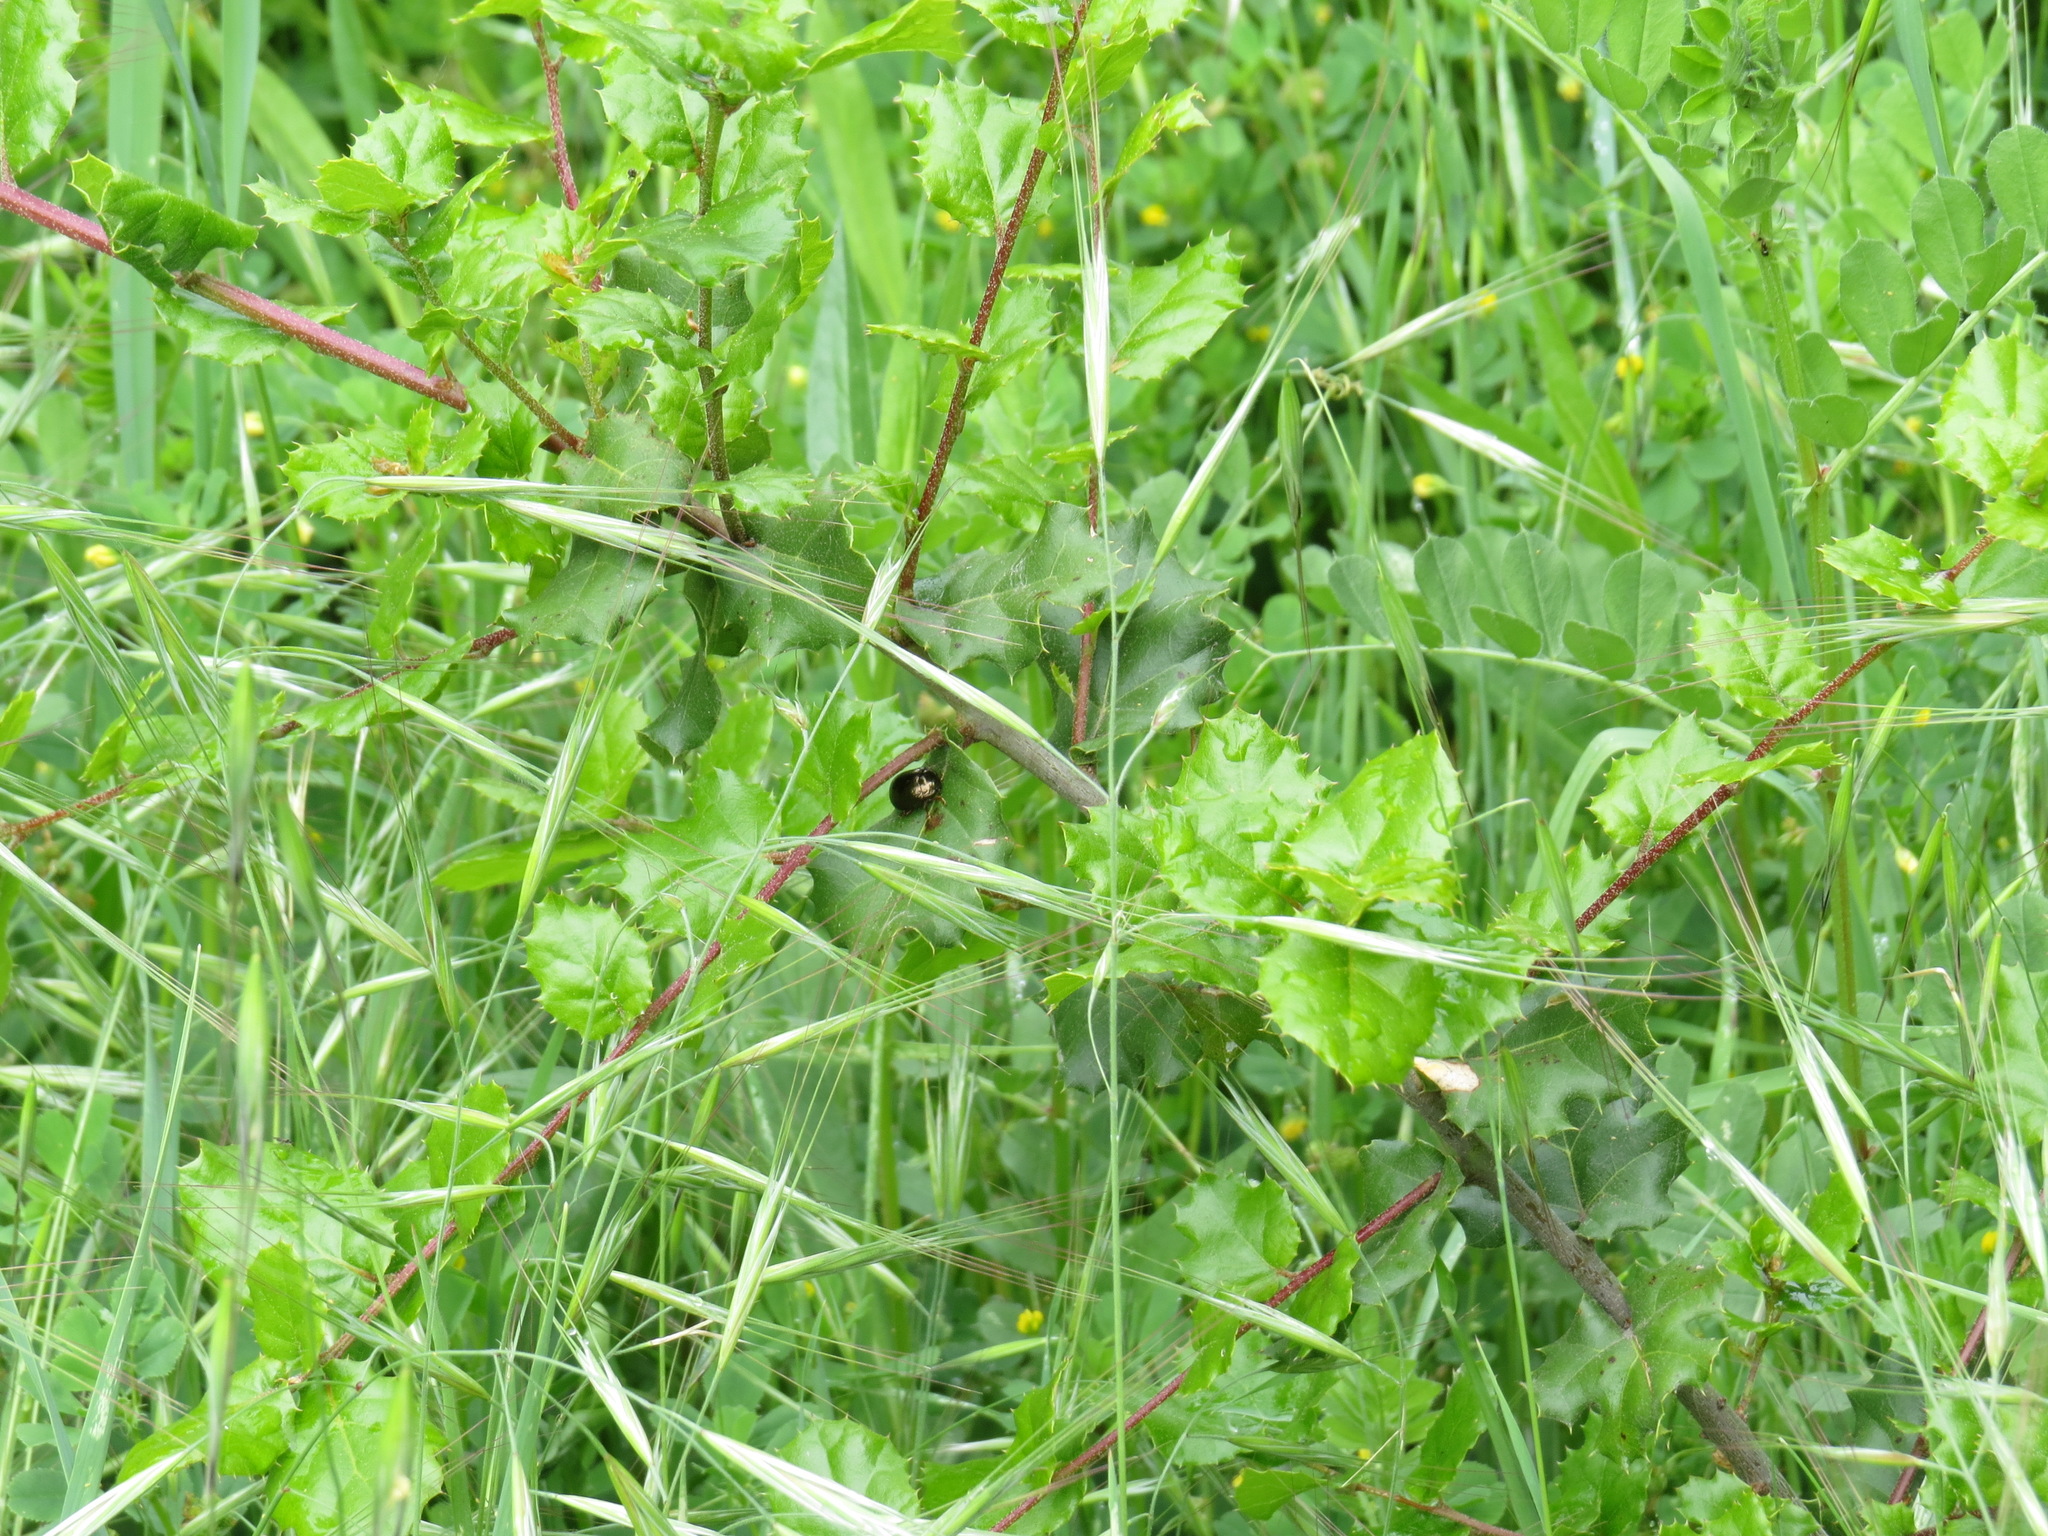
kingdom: Animalia
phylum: Arthropoda
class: Insecta
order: Coleoptera
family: Chrysomelidae
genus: Chrysolina
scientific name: Chrysolina bankii
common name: Leaf beetle
